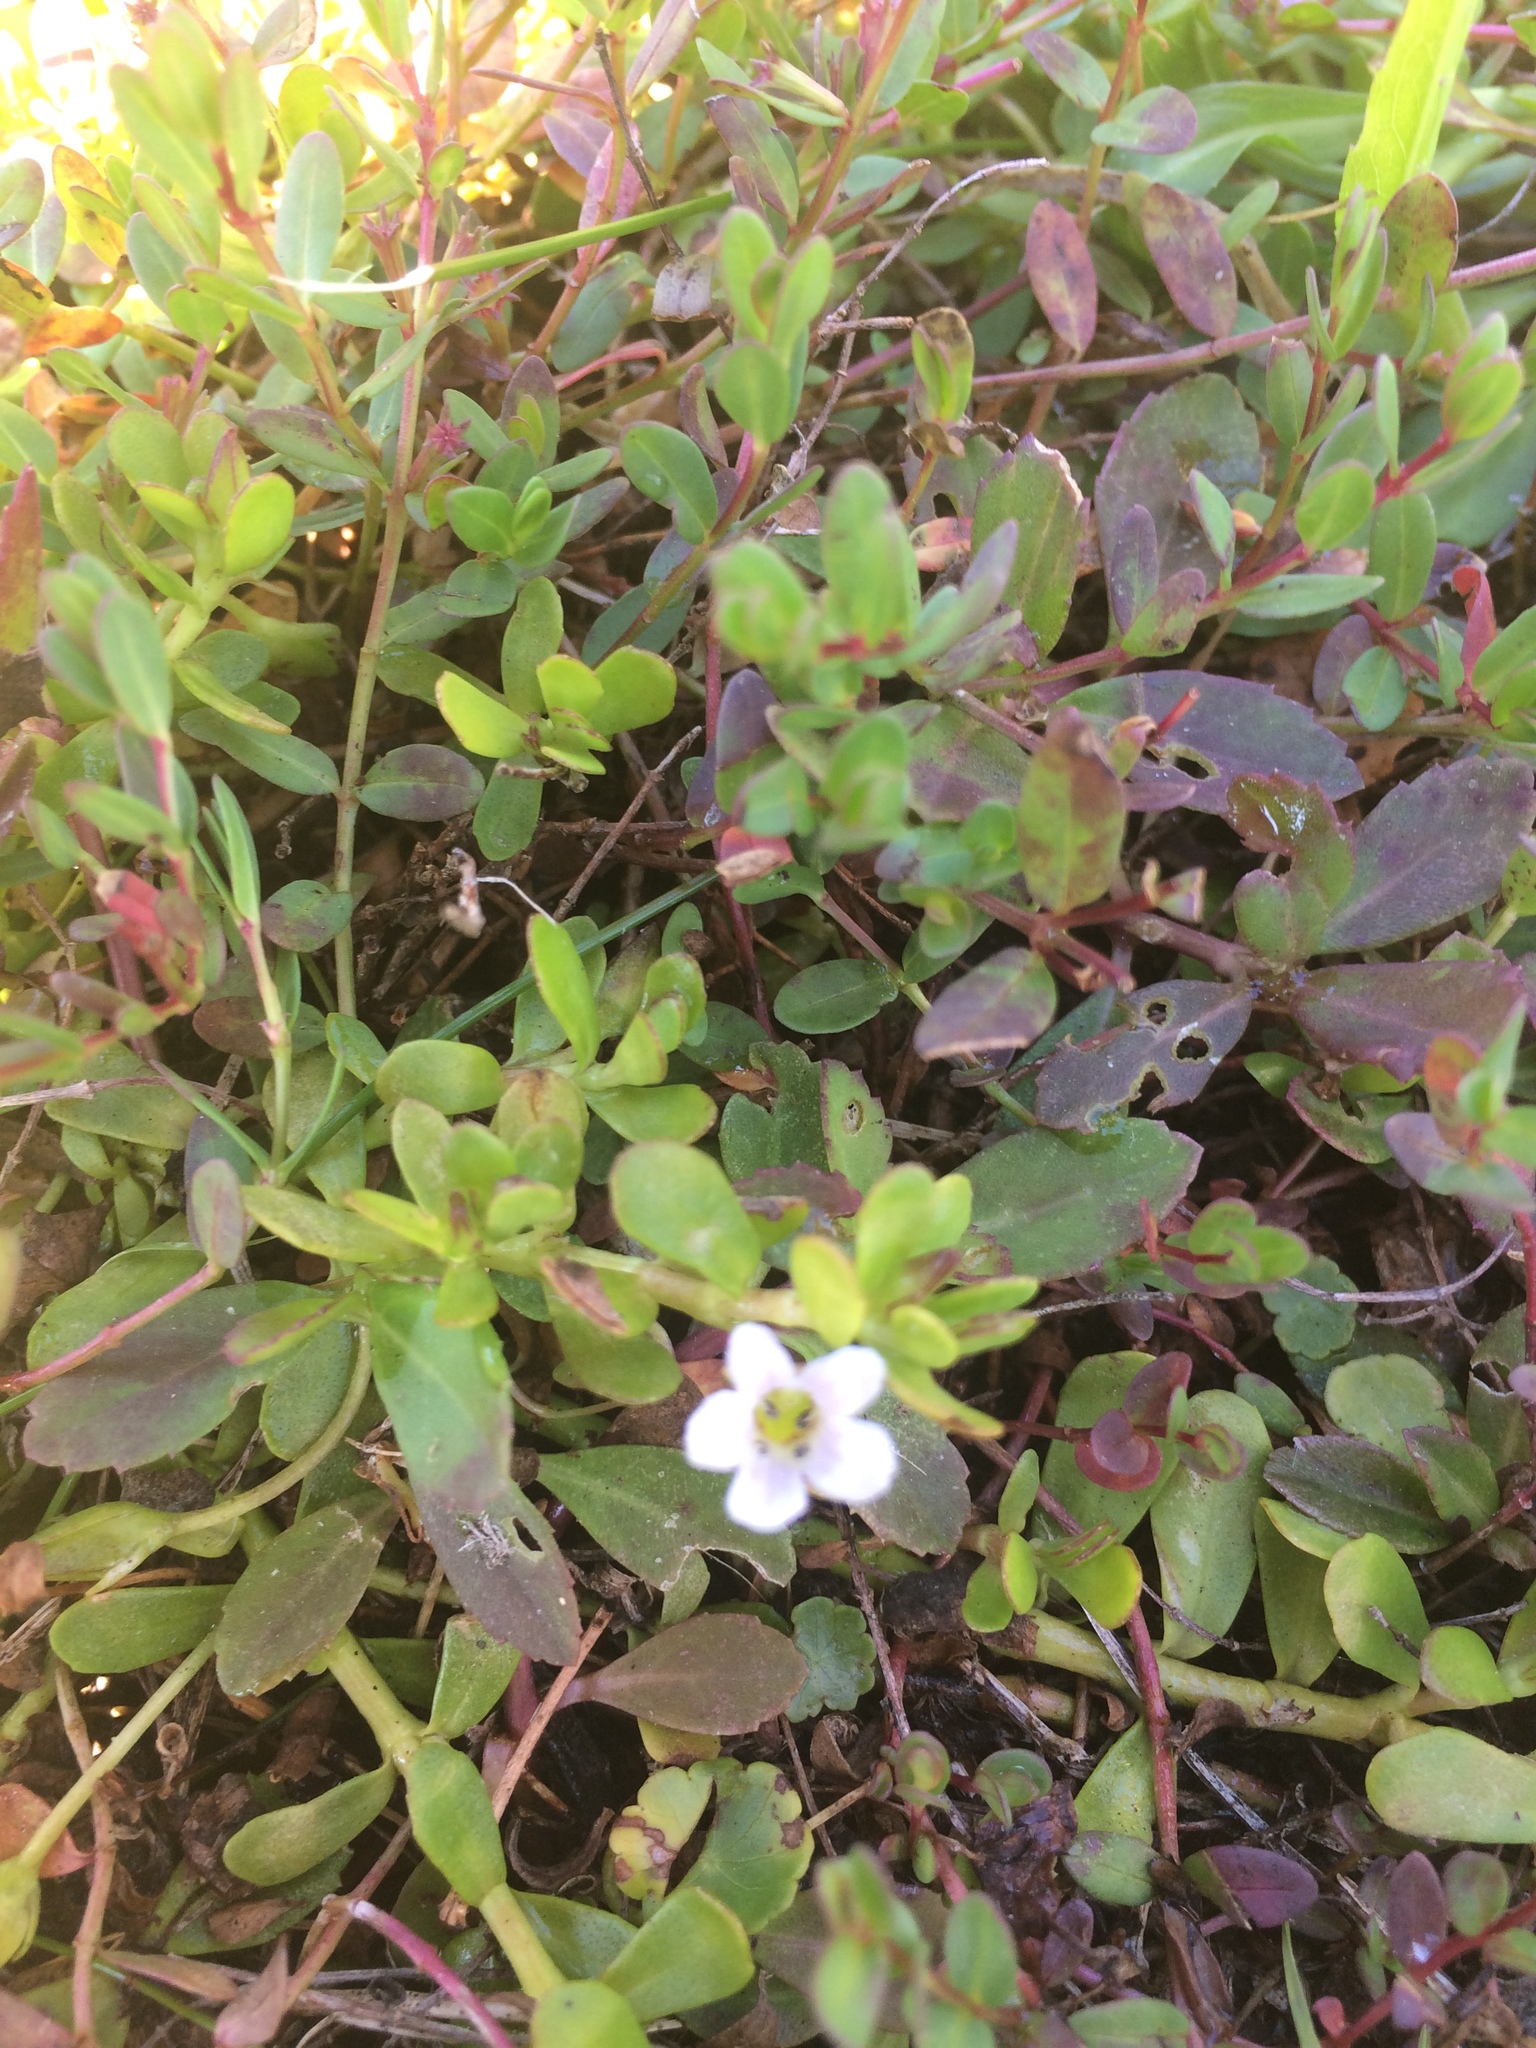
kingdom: Plantae
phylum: Tracheophyta
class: Magnoliopsida
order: Lamiales
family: Plantaginaceae
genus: Bacopa
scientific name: Bacopa monnieri
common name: Indian-pennywort
